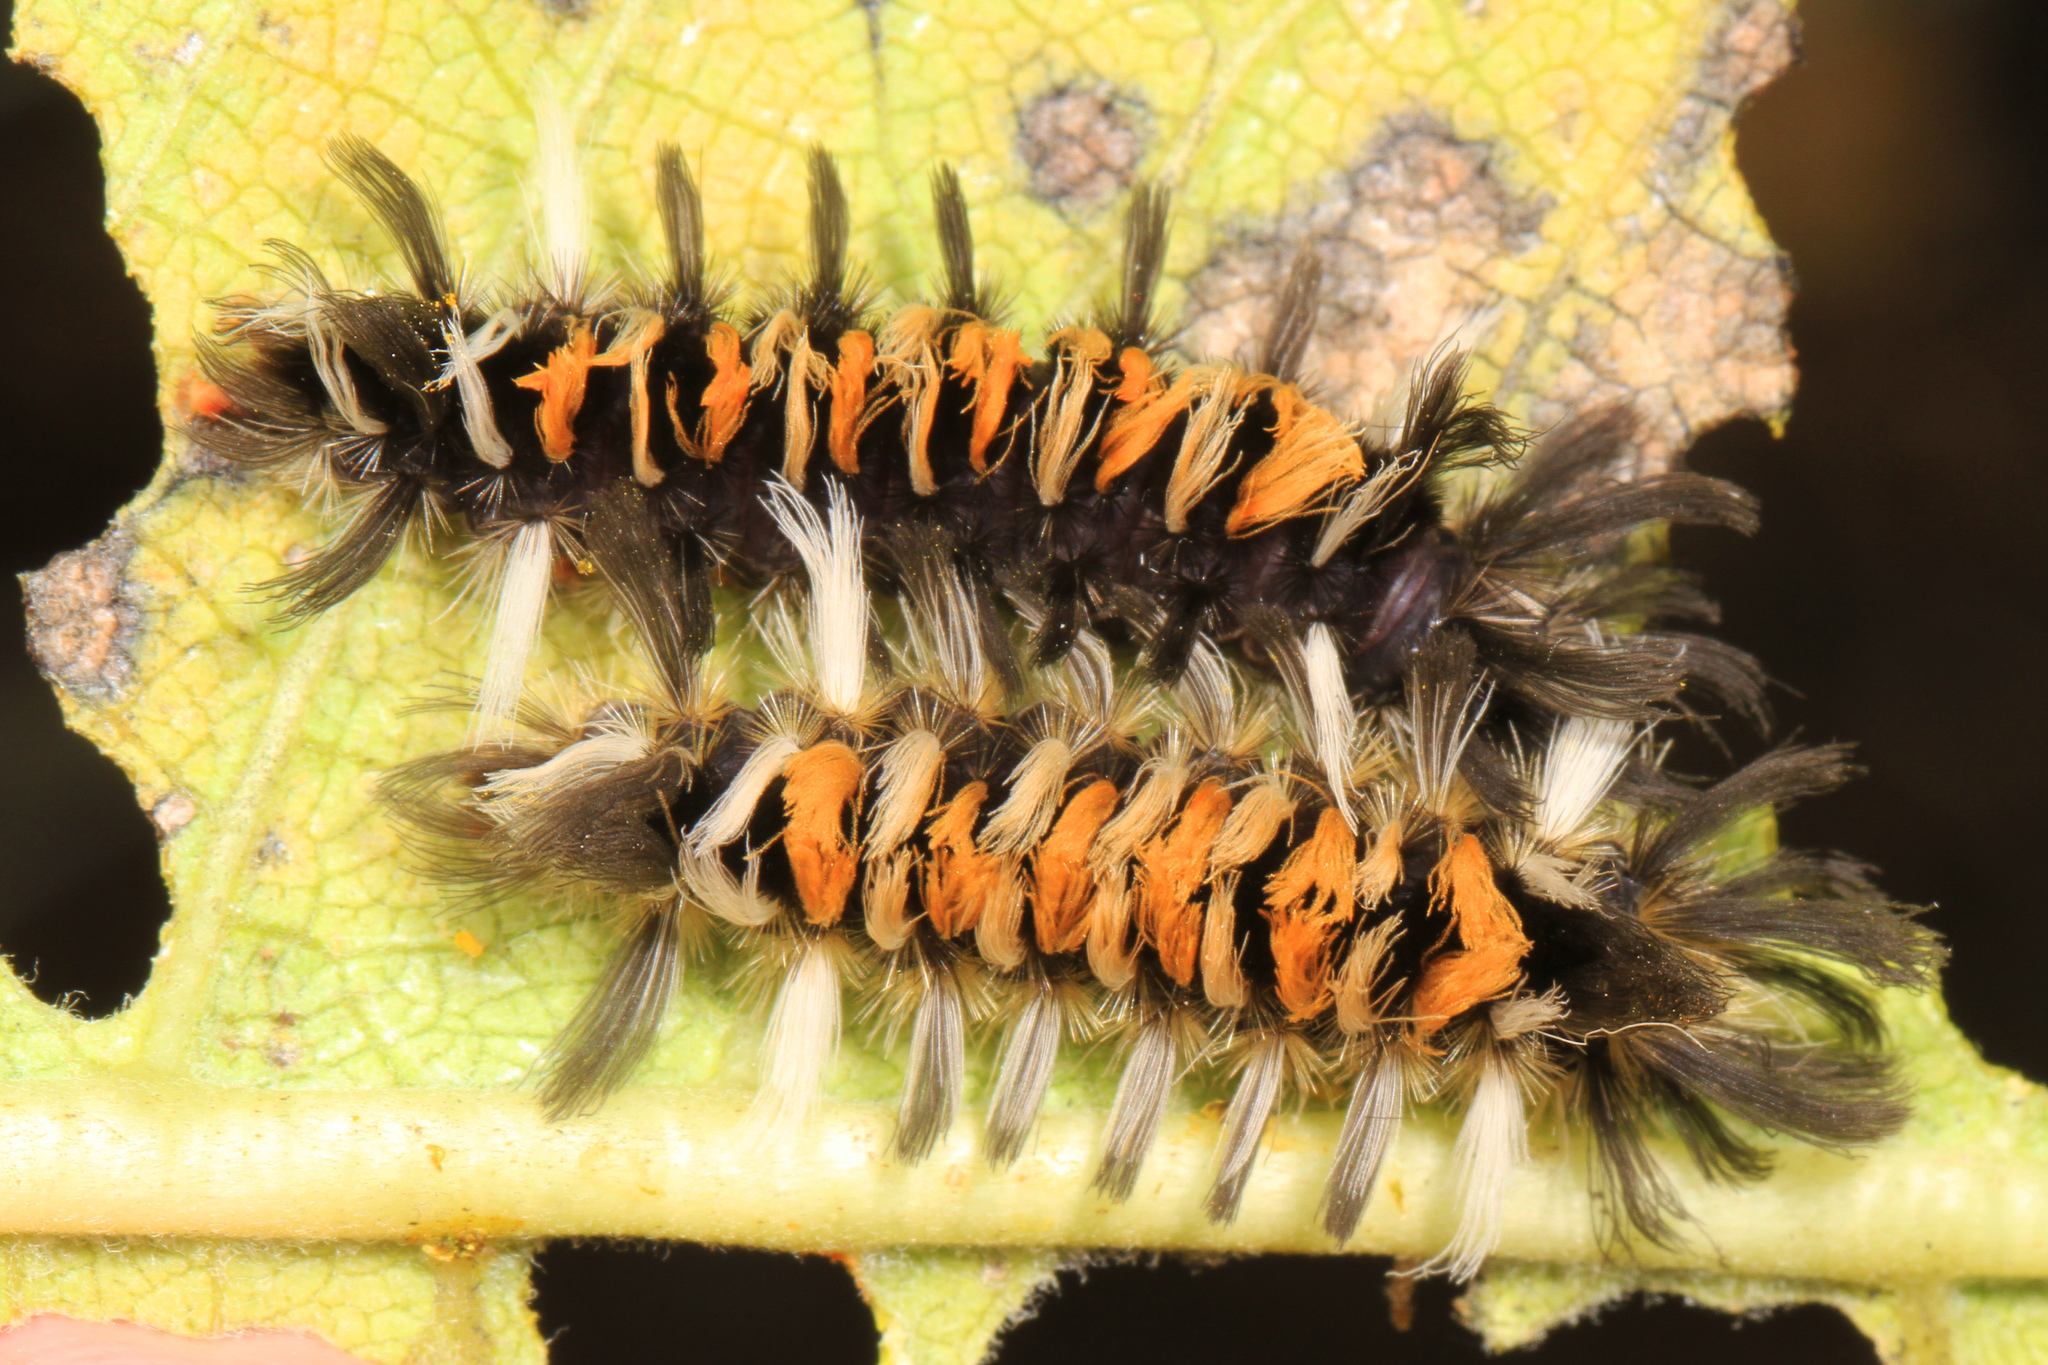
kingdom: Animalia
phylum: Arthropoda
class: Insecta
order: Lepidoptera
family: Erebidae
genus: Euchaetes
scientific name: Euchaetes egle
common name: Milkweed tussock moth
